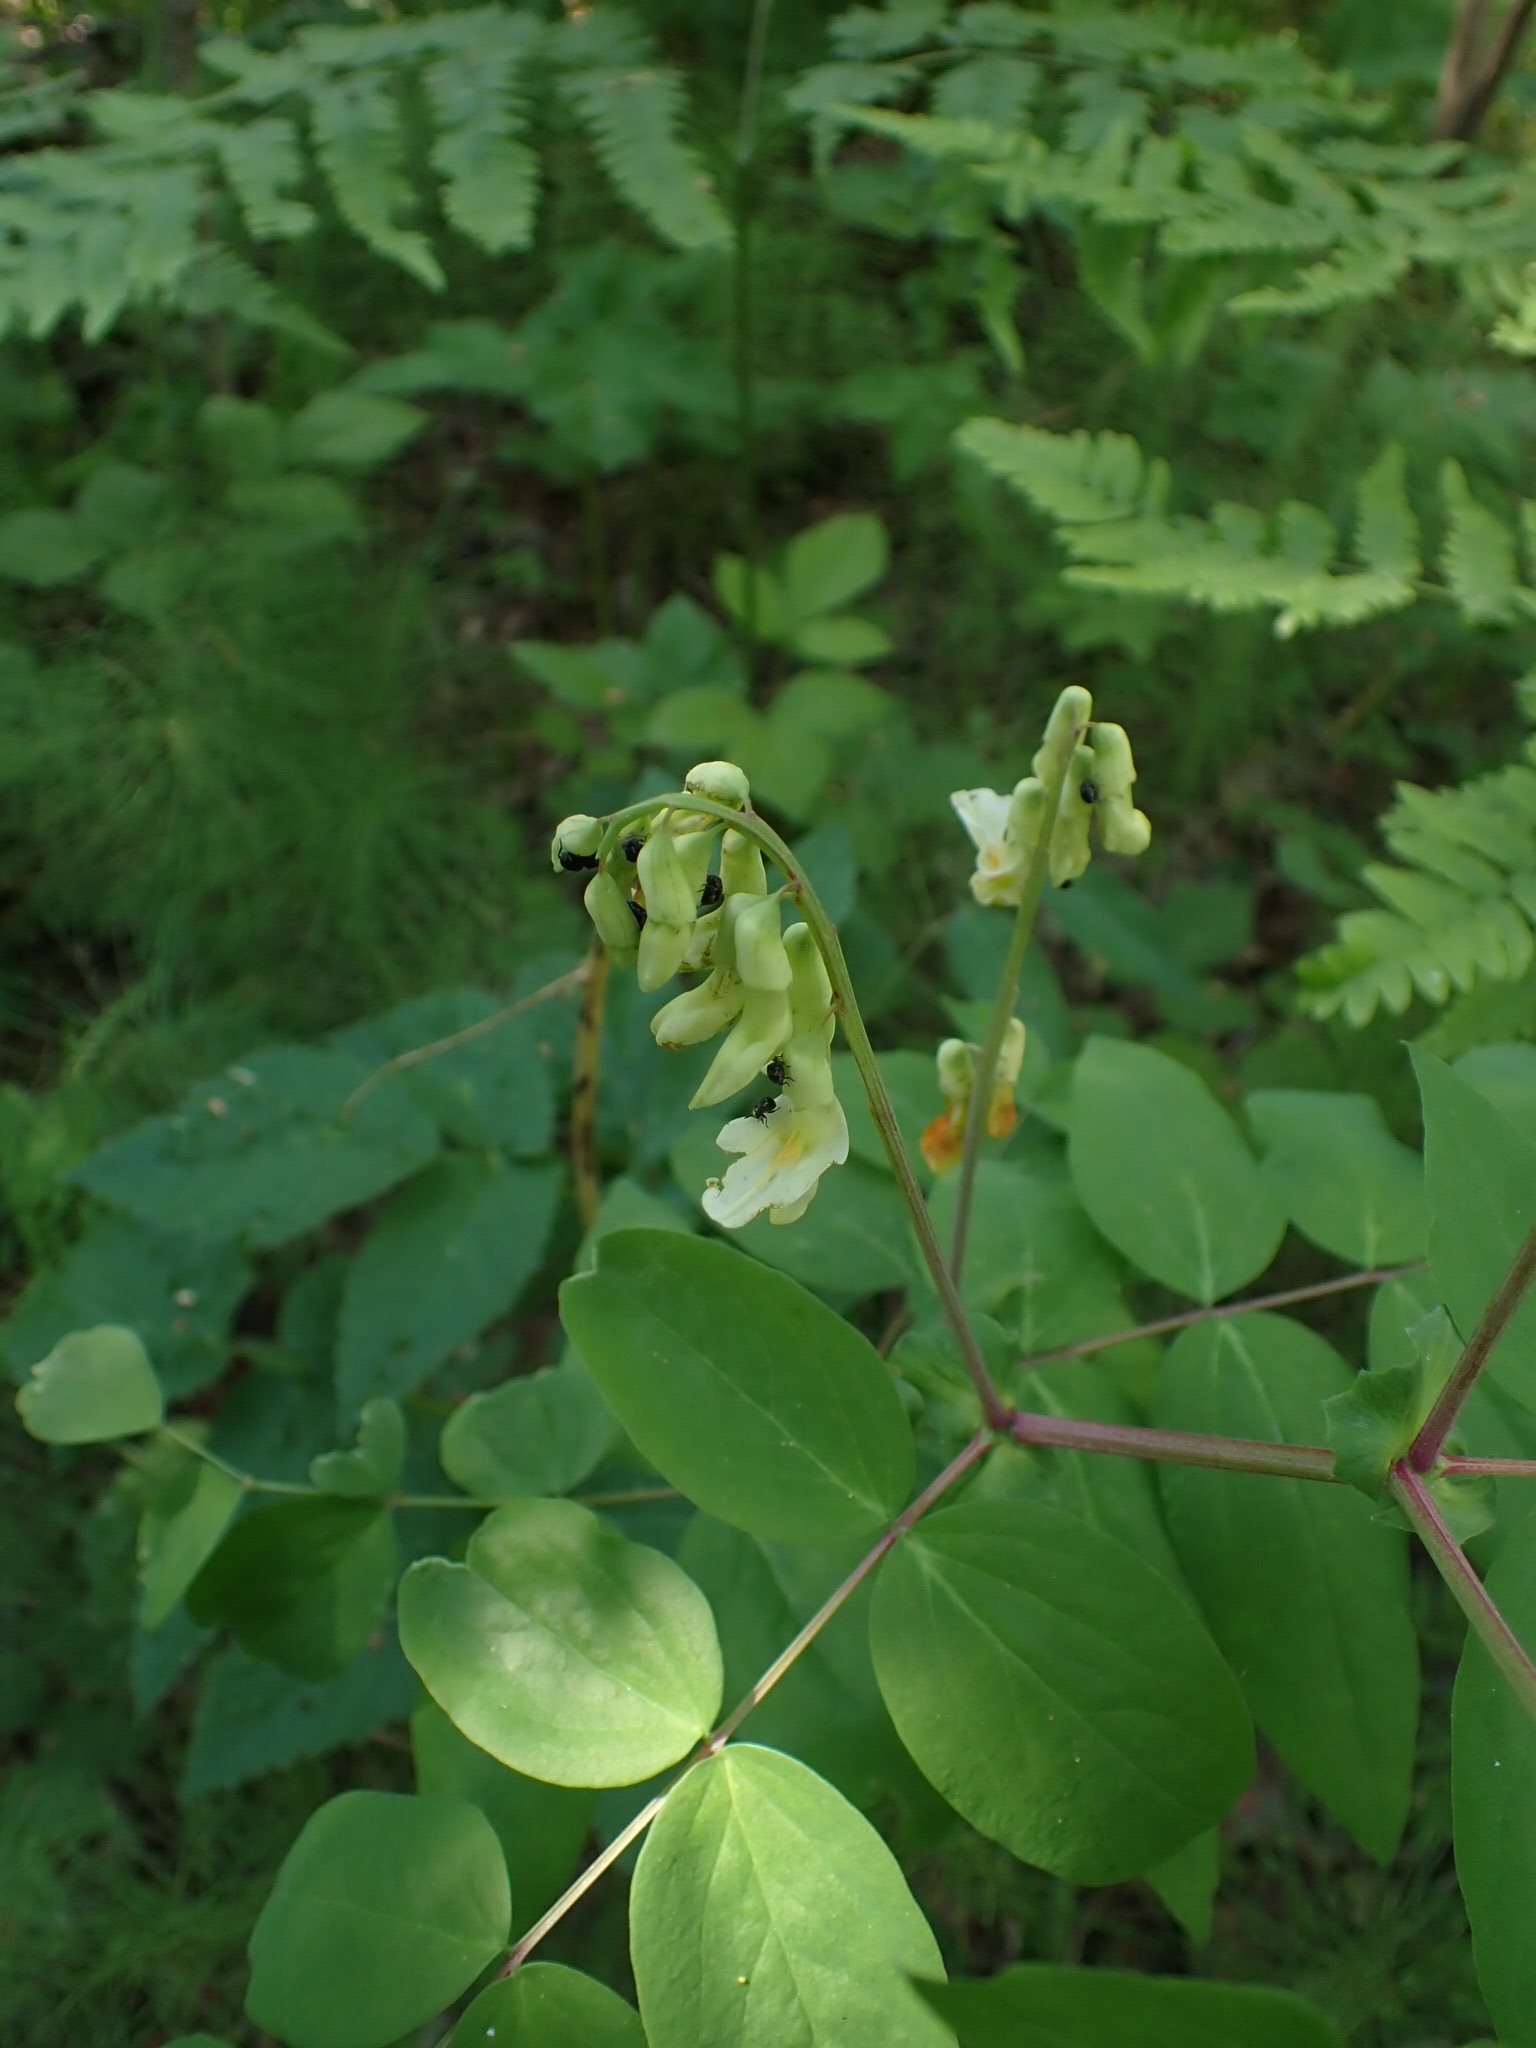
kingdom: Plantae
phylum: Tracheophyta
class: Magnoliopsida
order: Fabales
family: Fabaceae
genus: Lathyrus
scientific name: Lathyrus gmelinii
